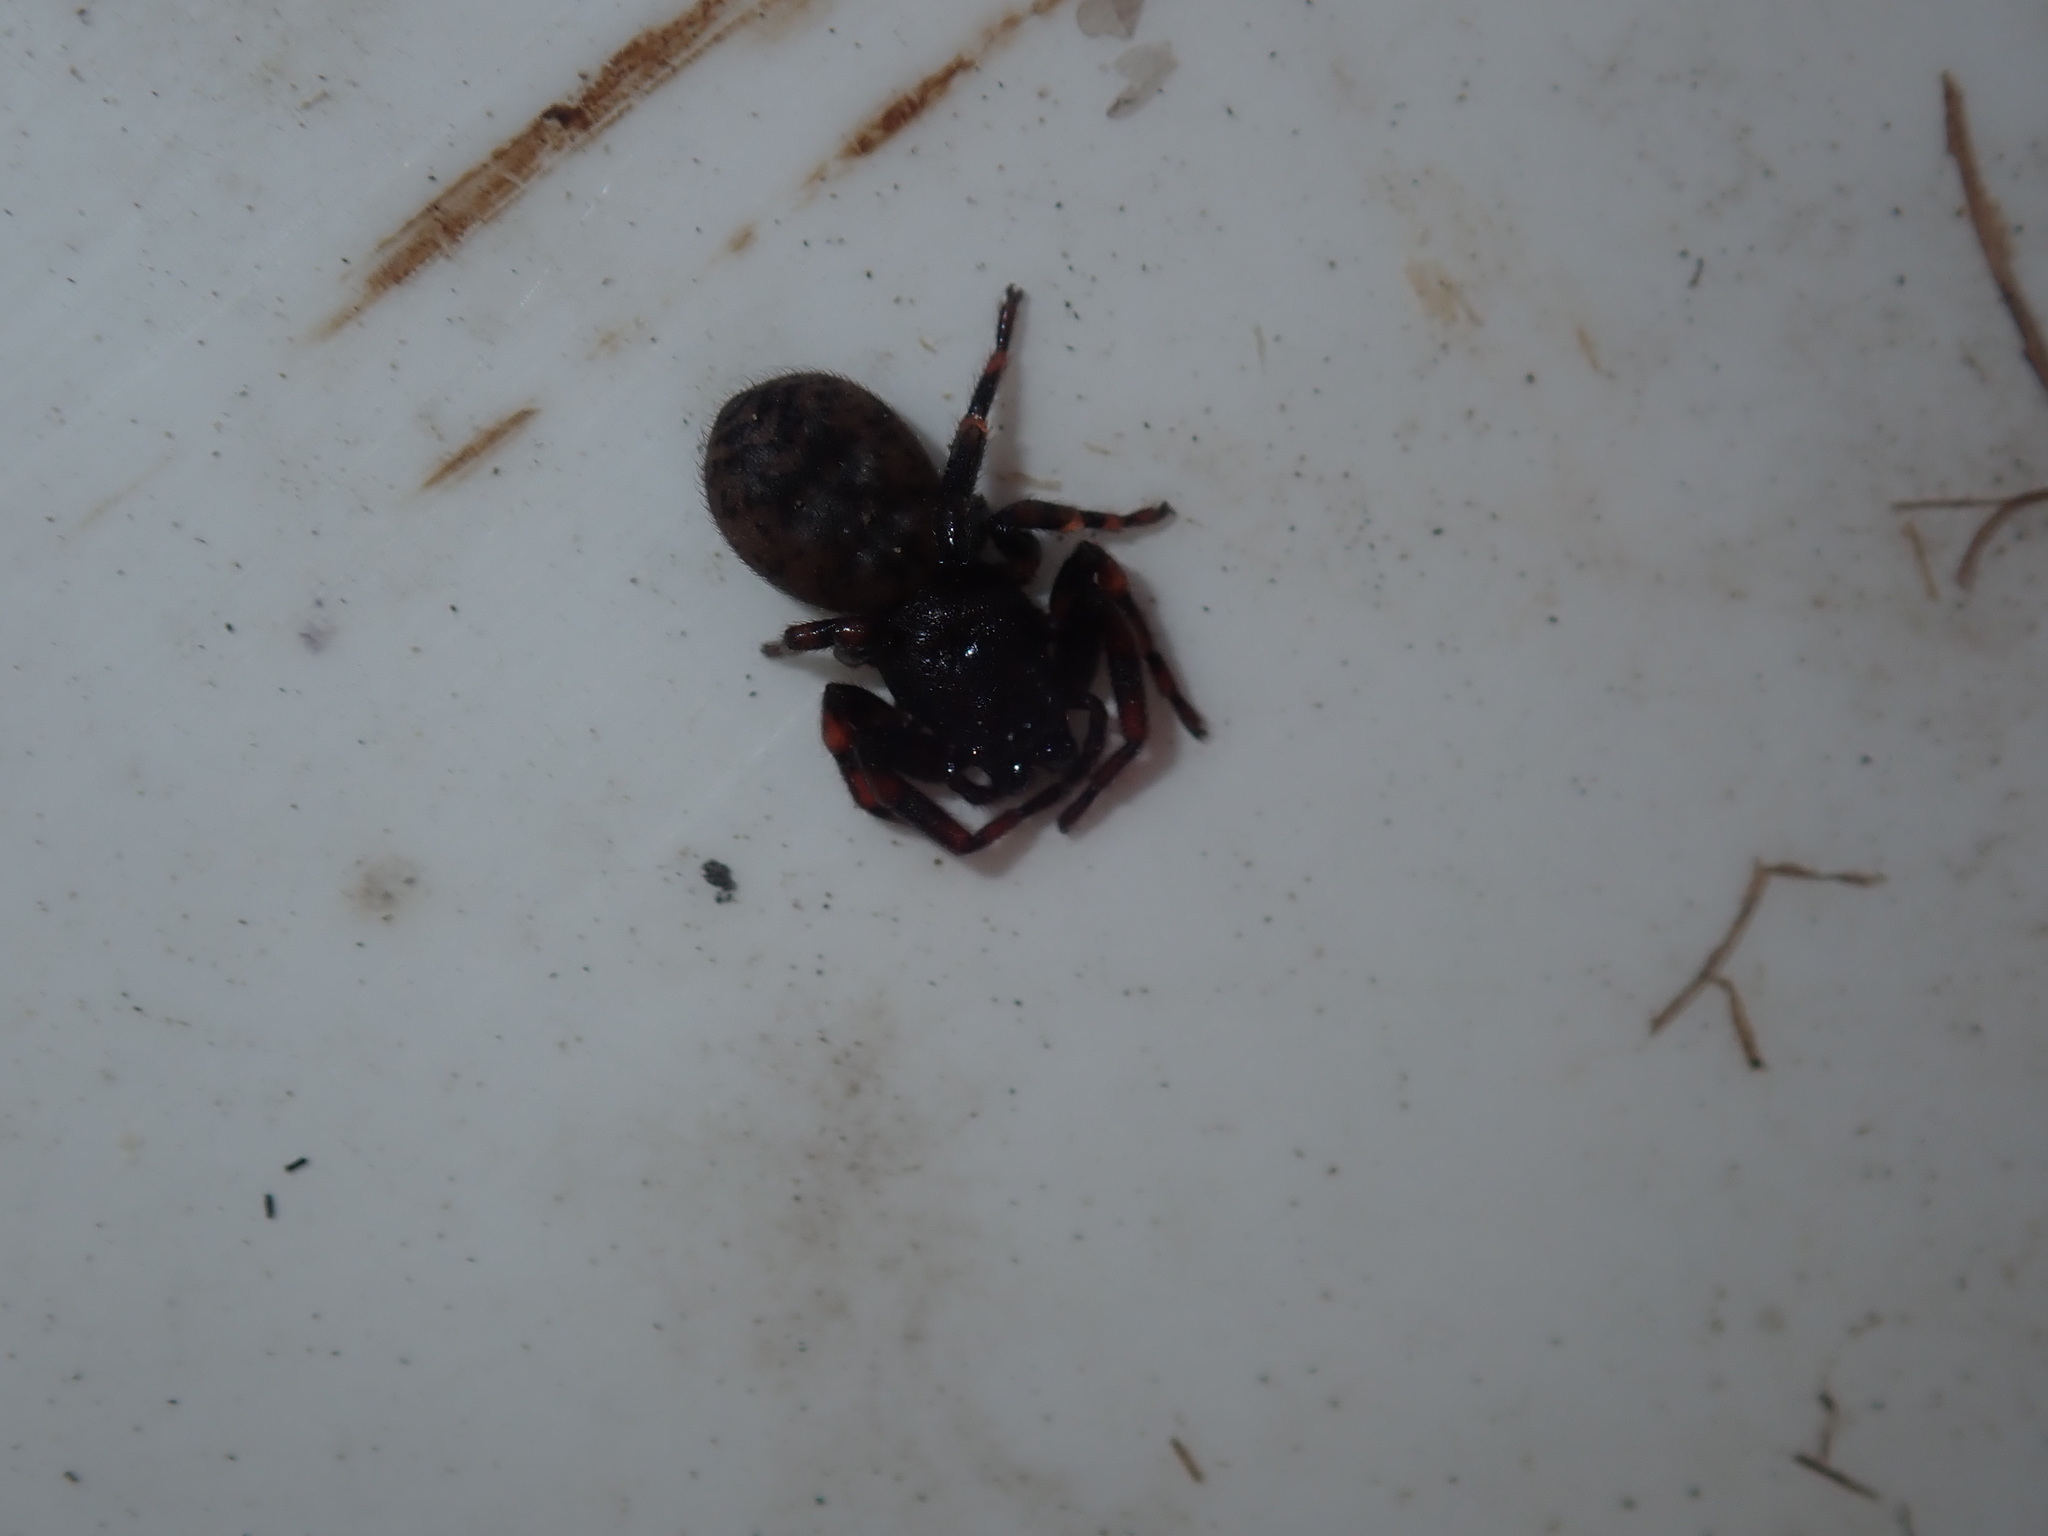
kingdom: Animalia
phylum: Arthropoda
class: Arachnida
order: Araneae
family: Trachycosmidae
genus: Trachycosmus
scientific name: Trachycosmus sculptilis
